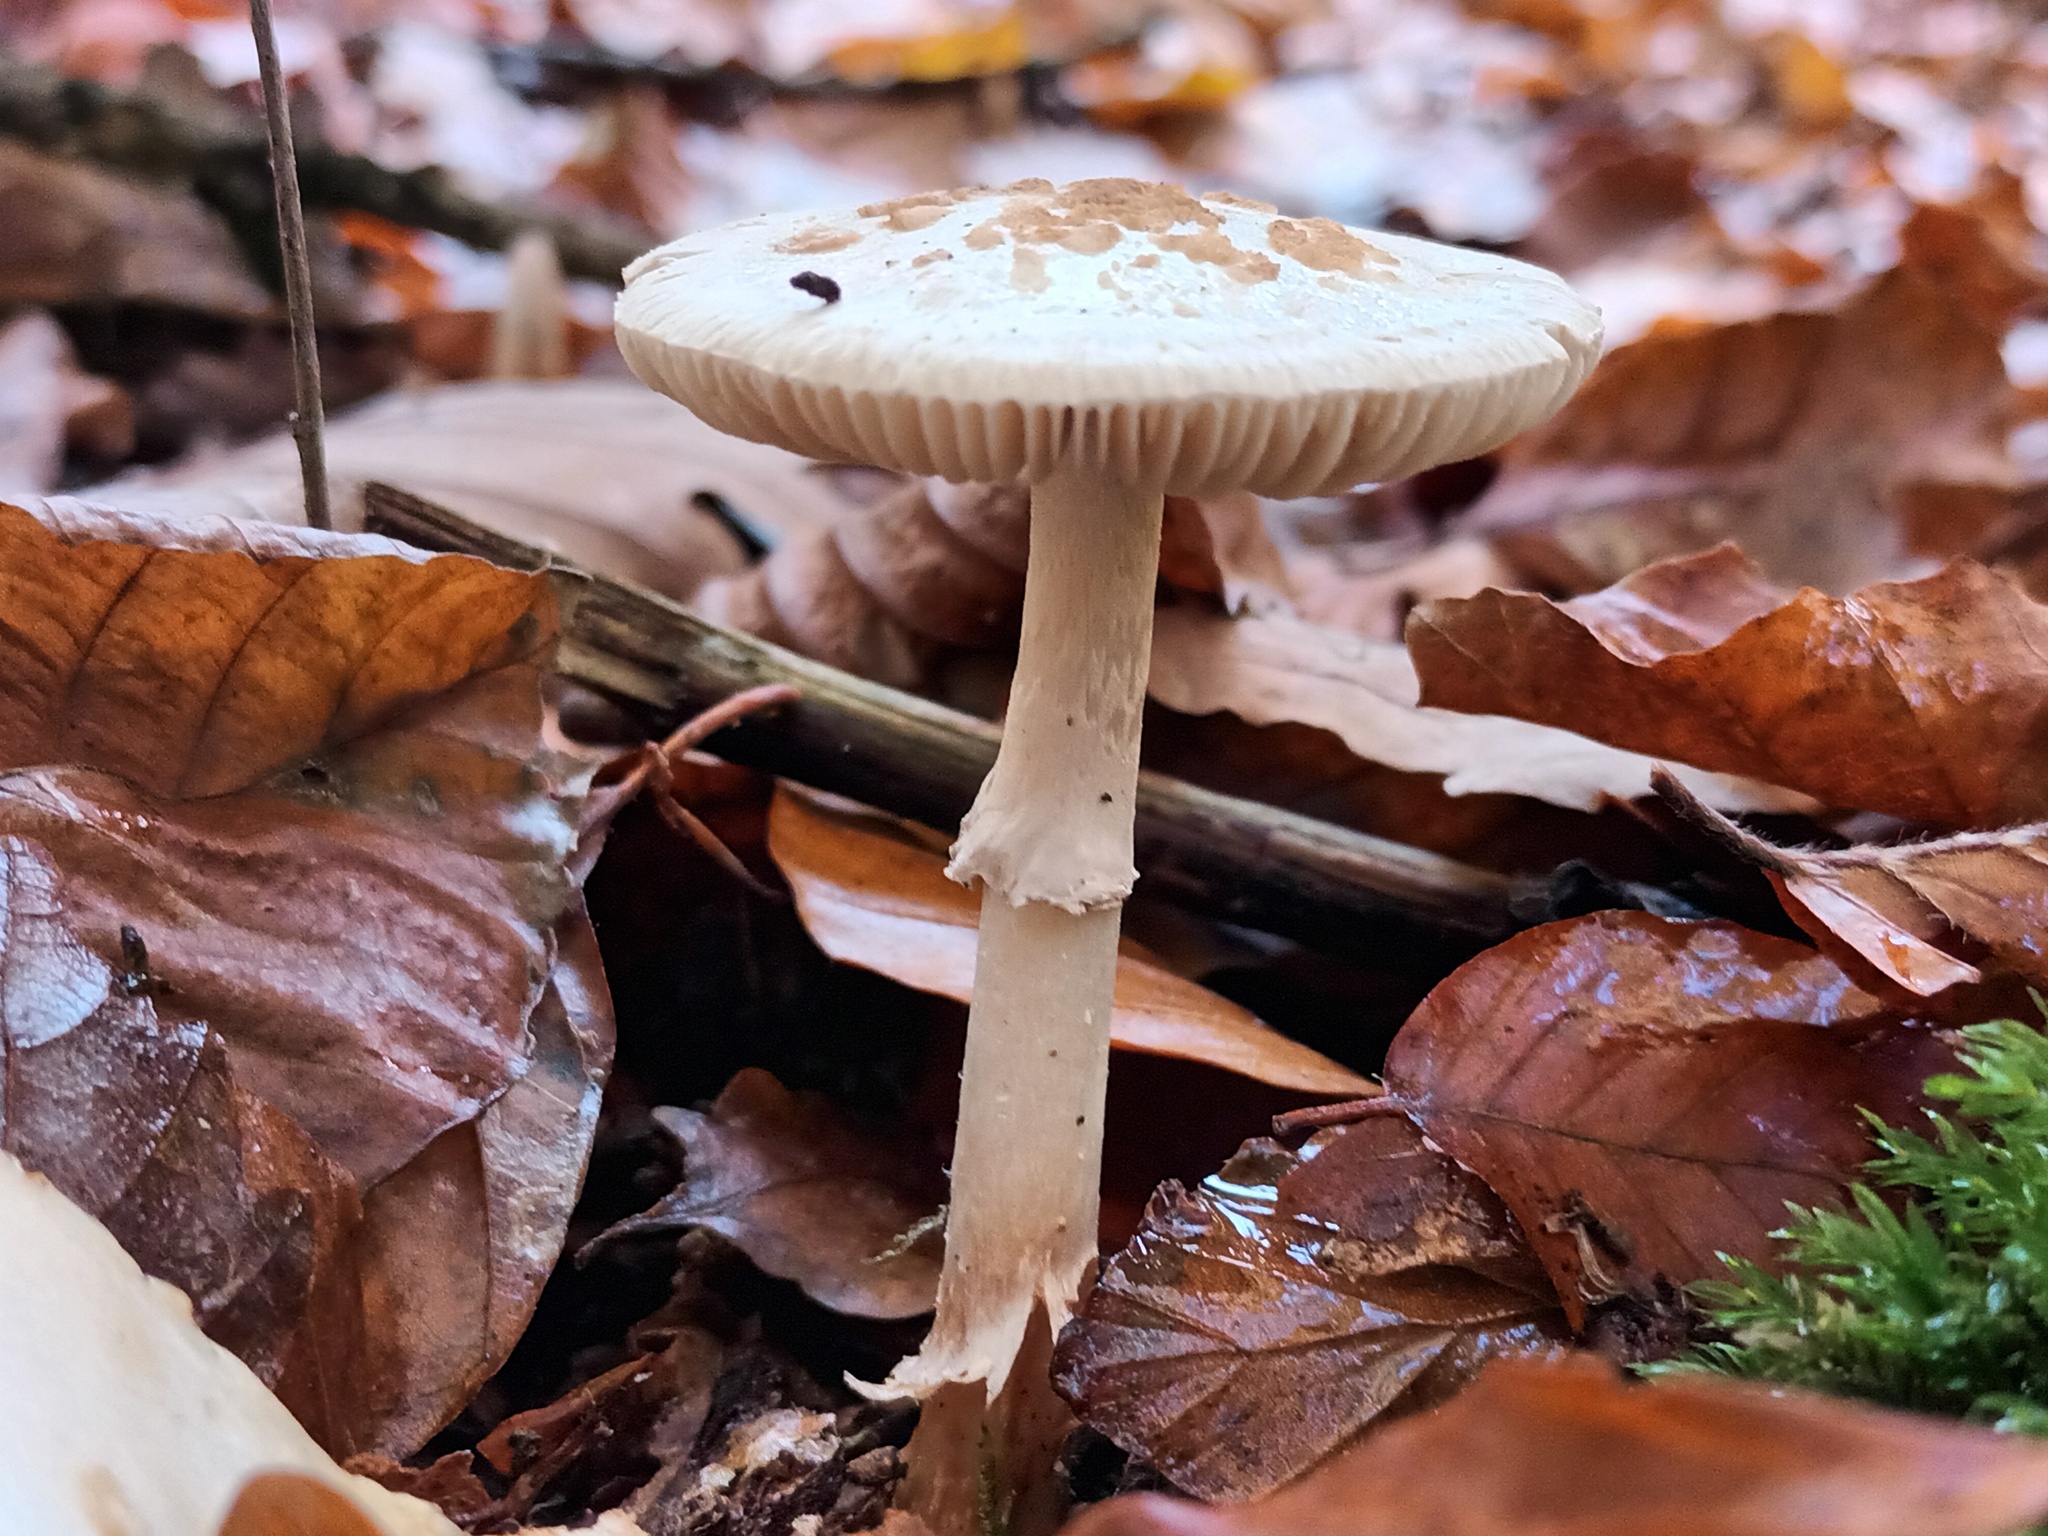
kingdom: Fungi
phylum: Basidiomycota
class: Agaricomycetes
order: Agaricales
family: Amanitaceae
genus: Amanita
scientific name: Amanita citrina
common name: False death-cap
